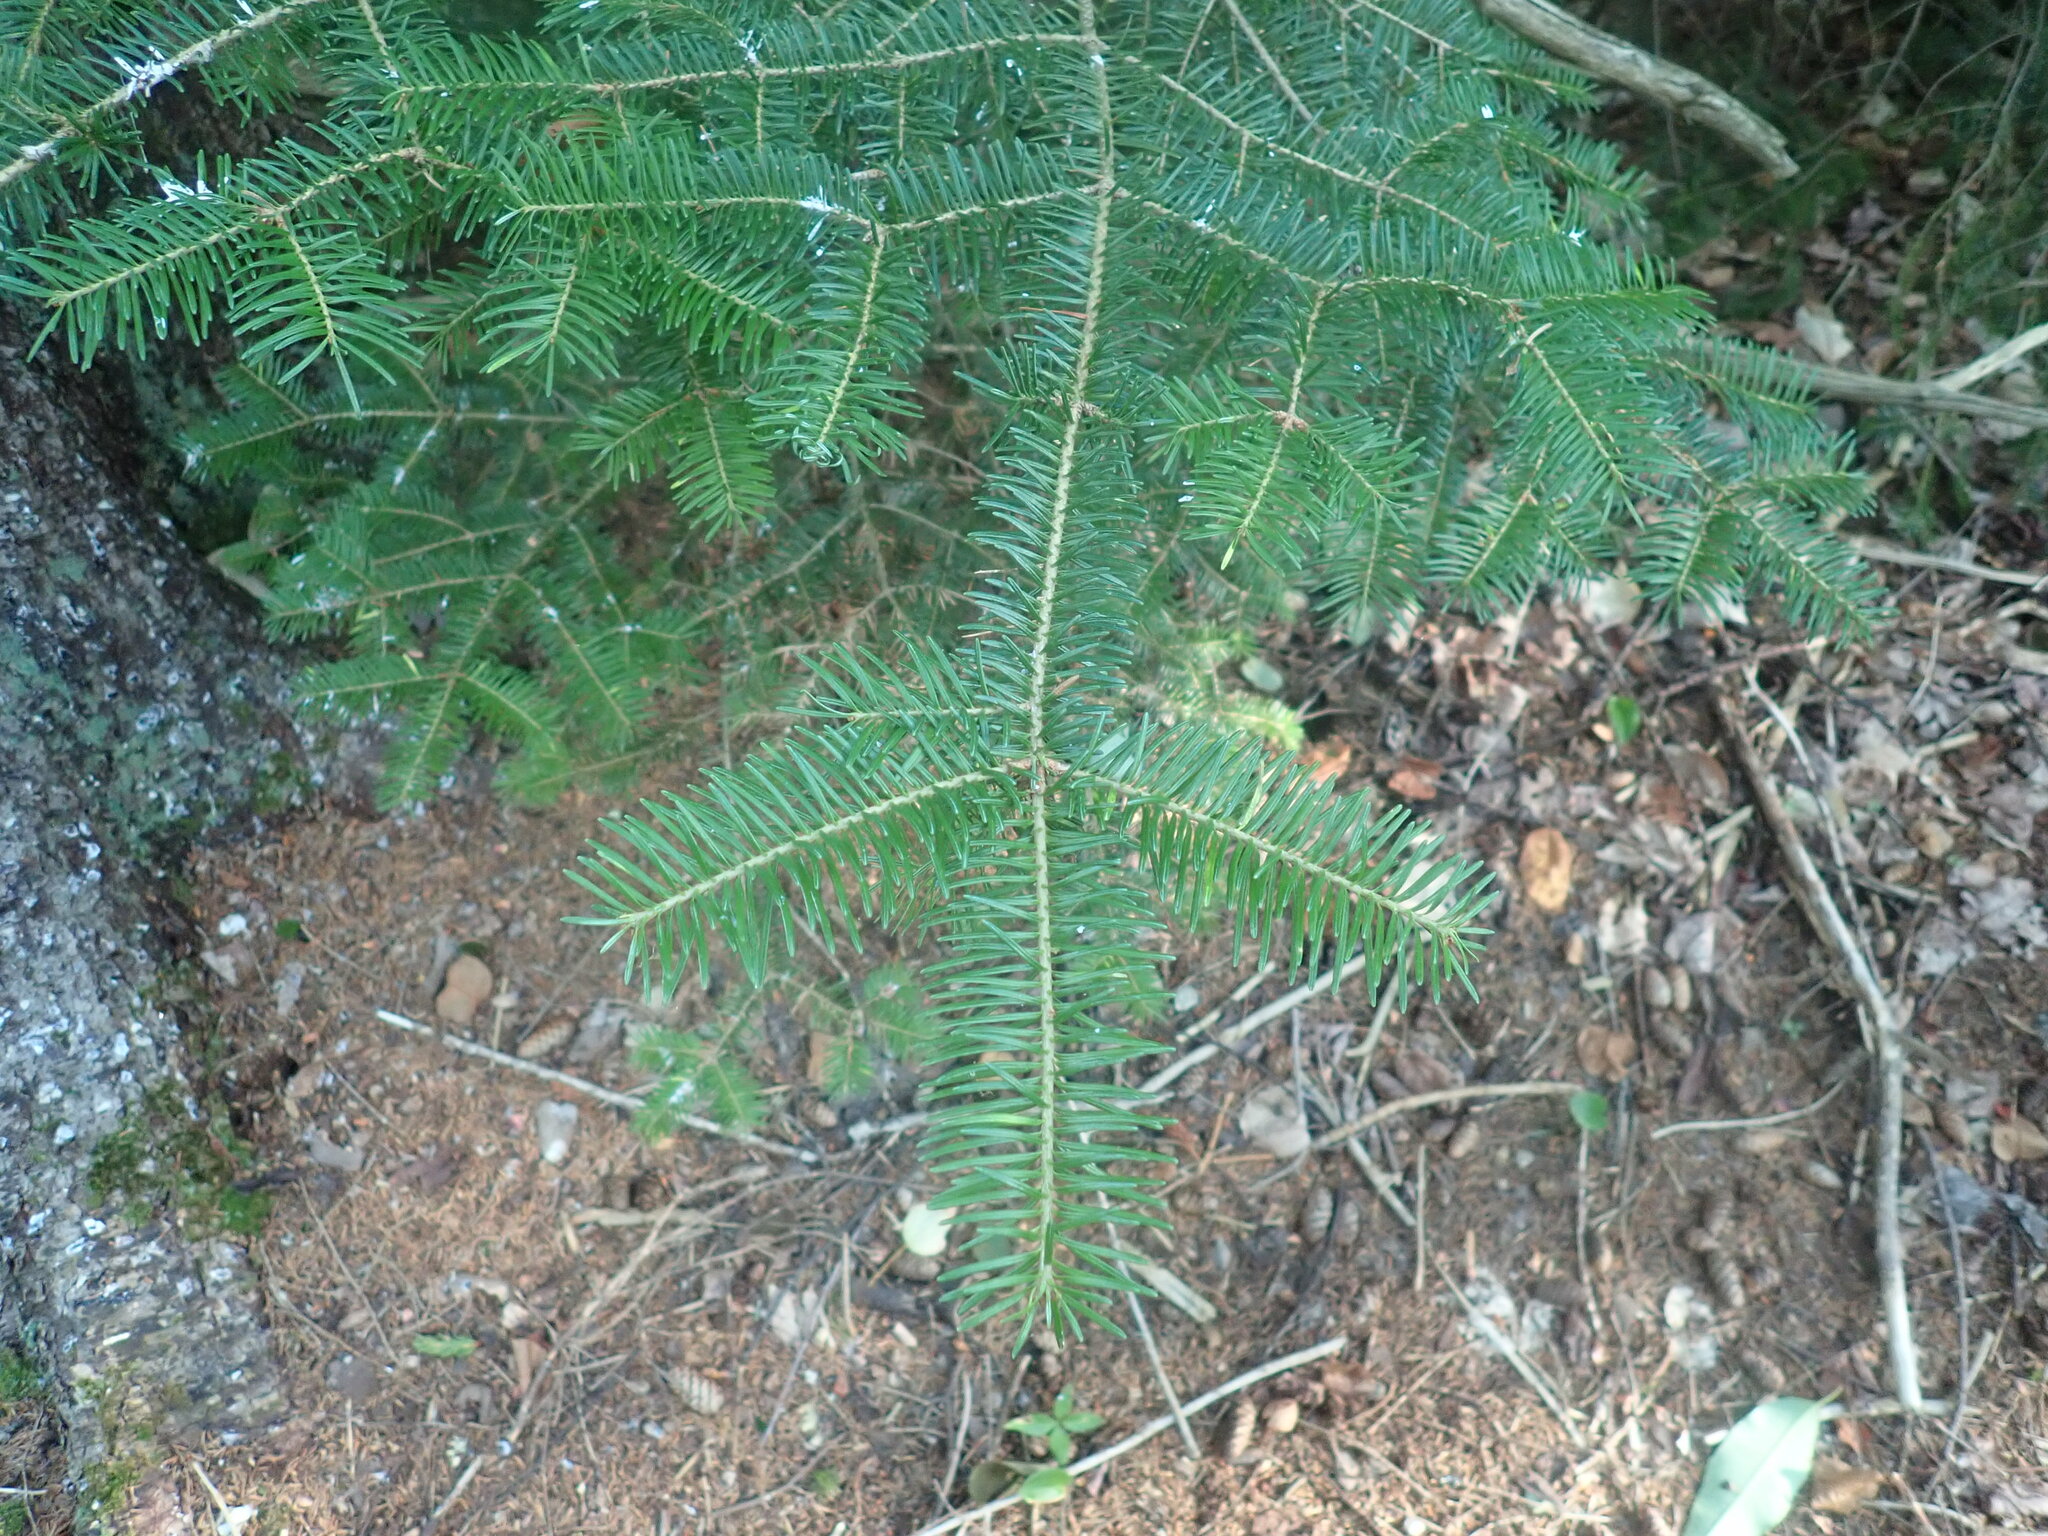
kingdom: Plantae
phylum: Tracheophyta
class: Pinopsida
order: Pinales
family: Pinaceae
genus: Abies
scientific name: Abies balsamea
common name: Balsam fir
